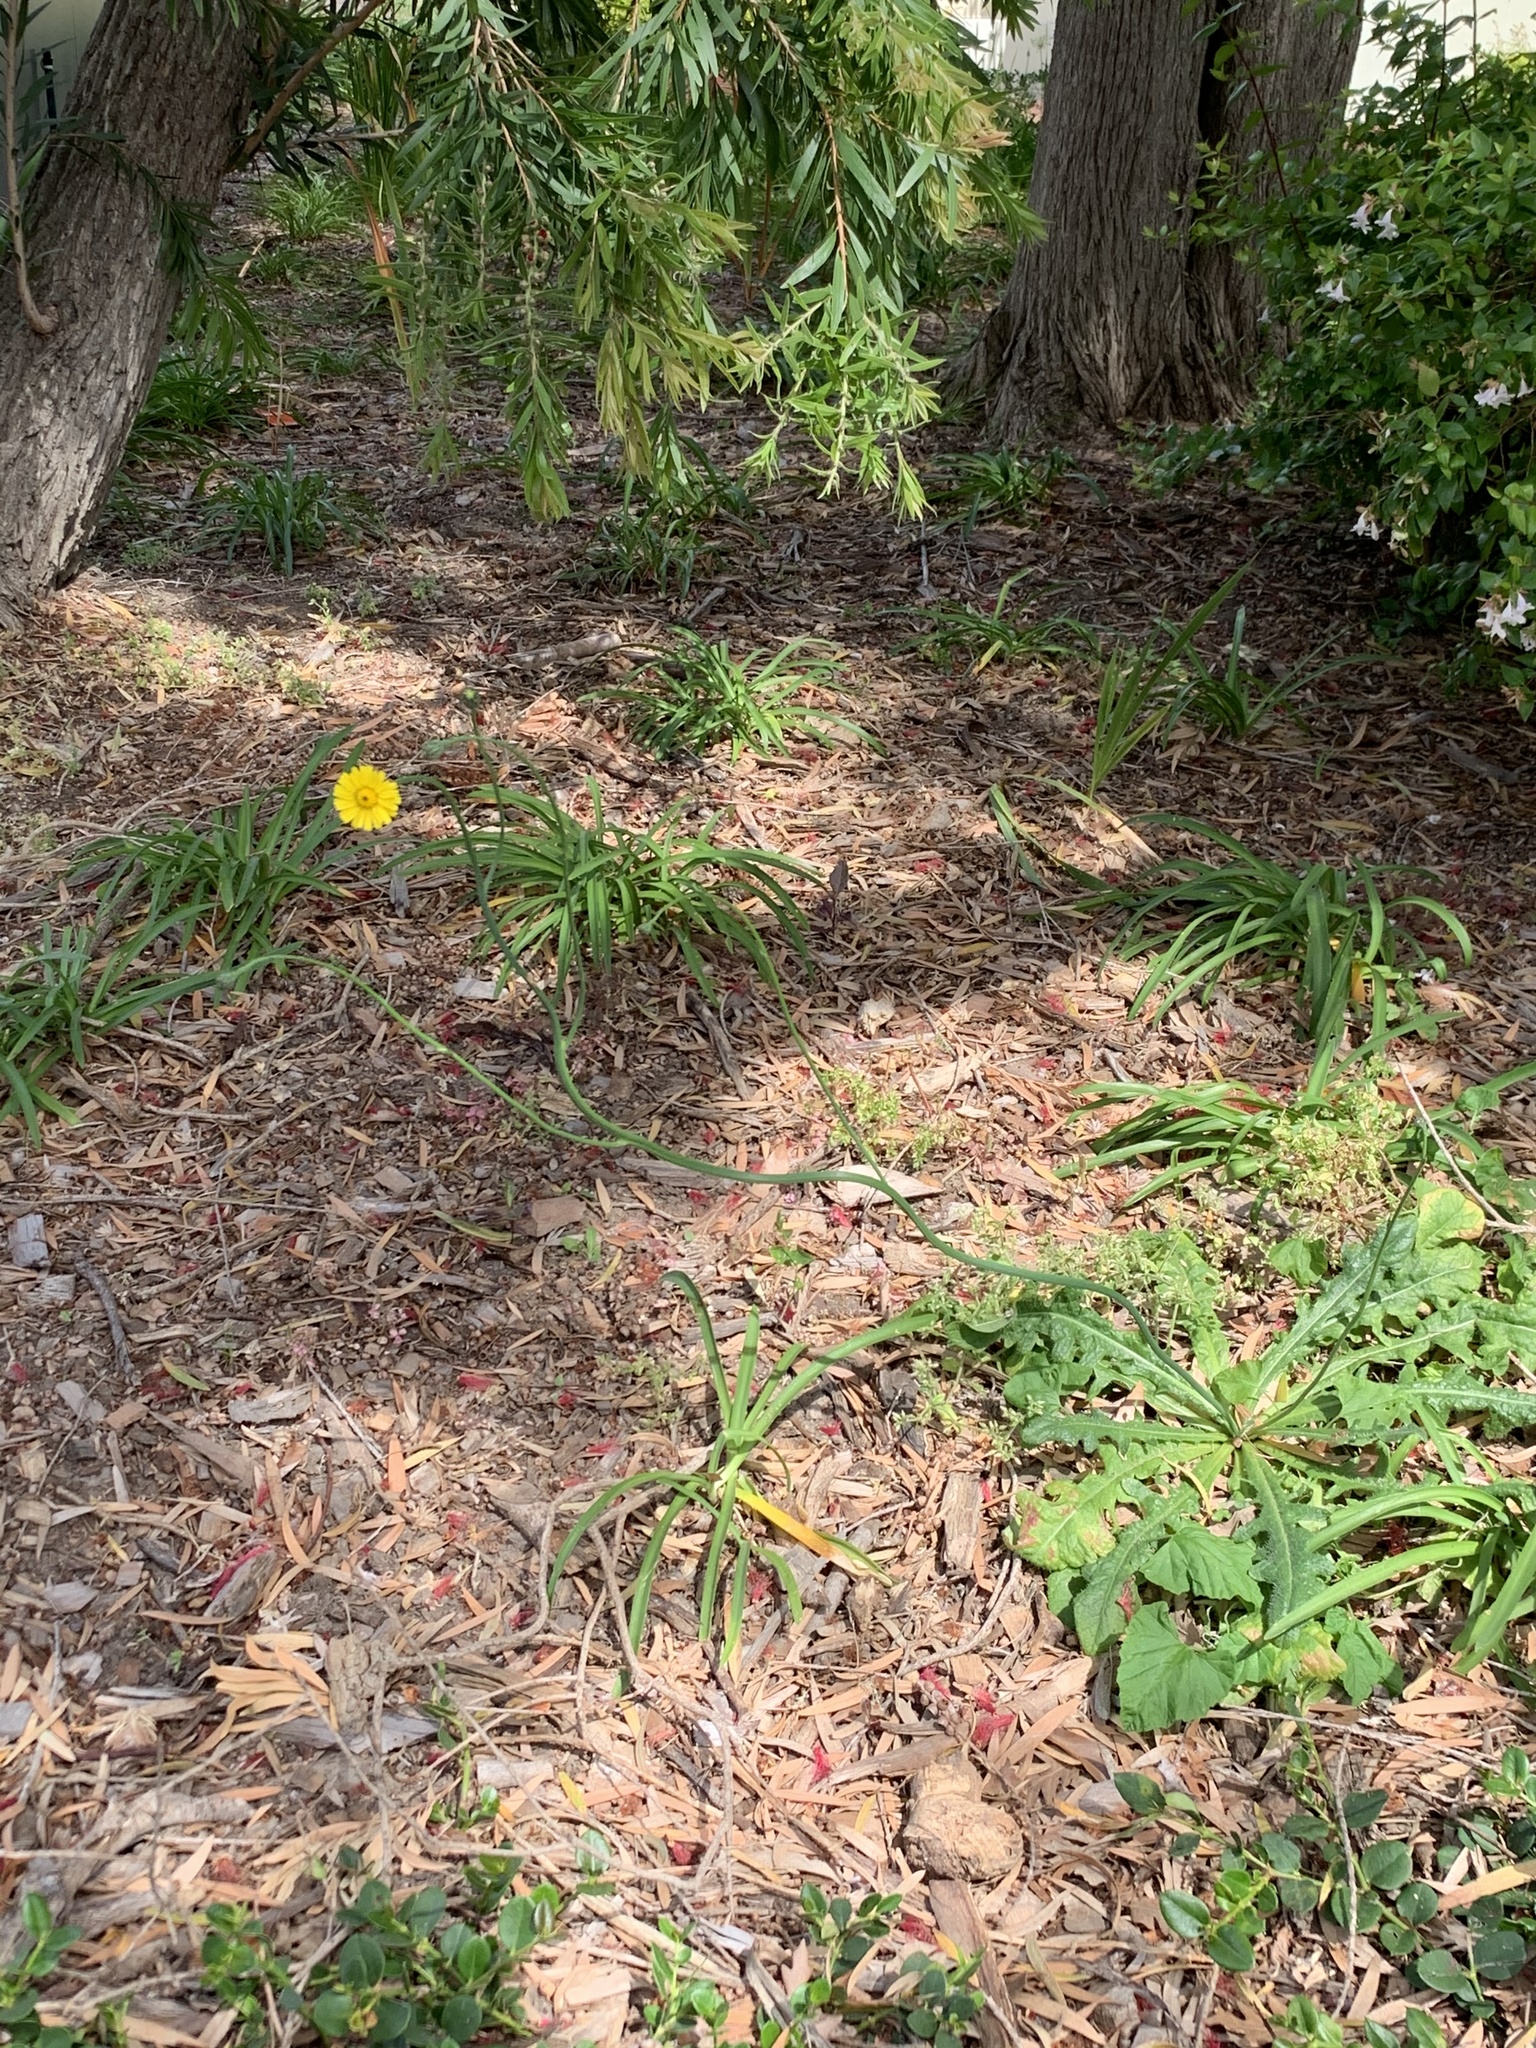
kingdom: Plantae
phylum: Tracheophyta
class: Magnoliopsida
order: Asterales
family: Asteraceae
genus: Hypochaeris
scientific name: Hypochaeris radicata
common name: Flatweed
